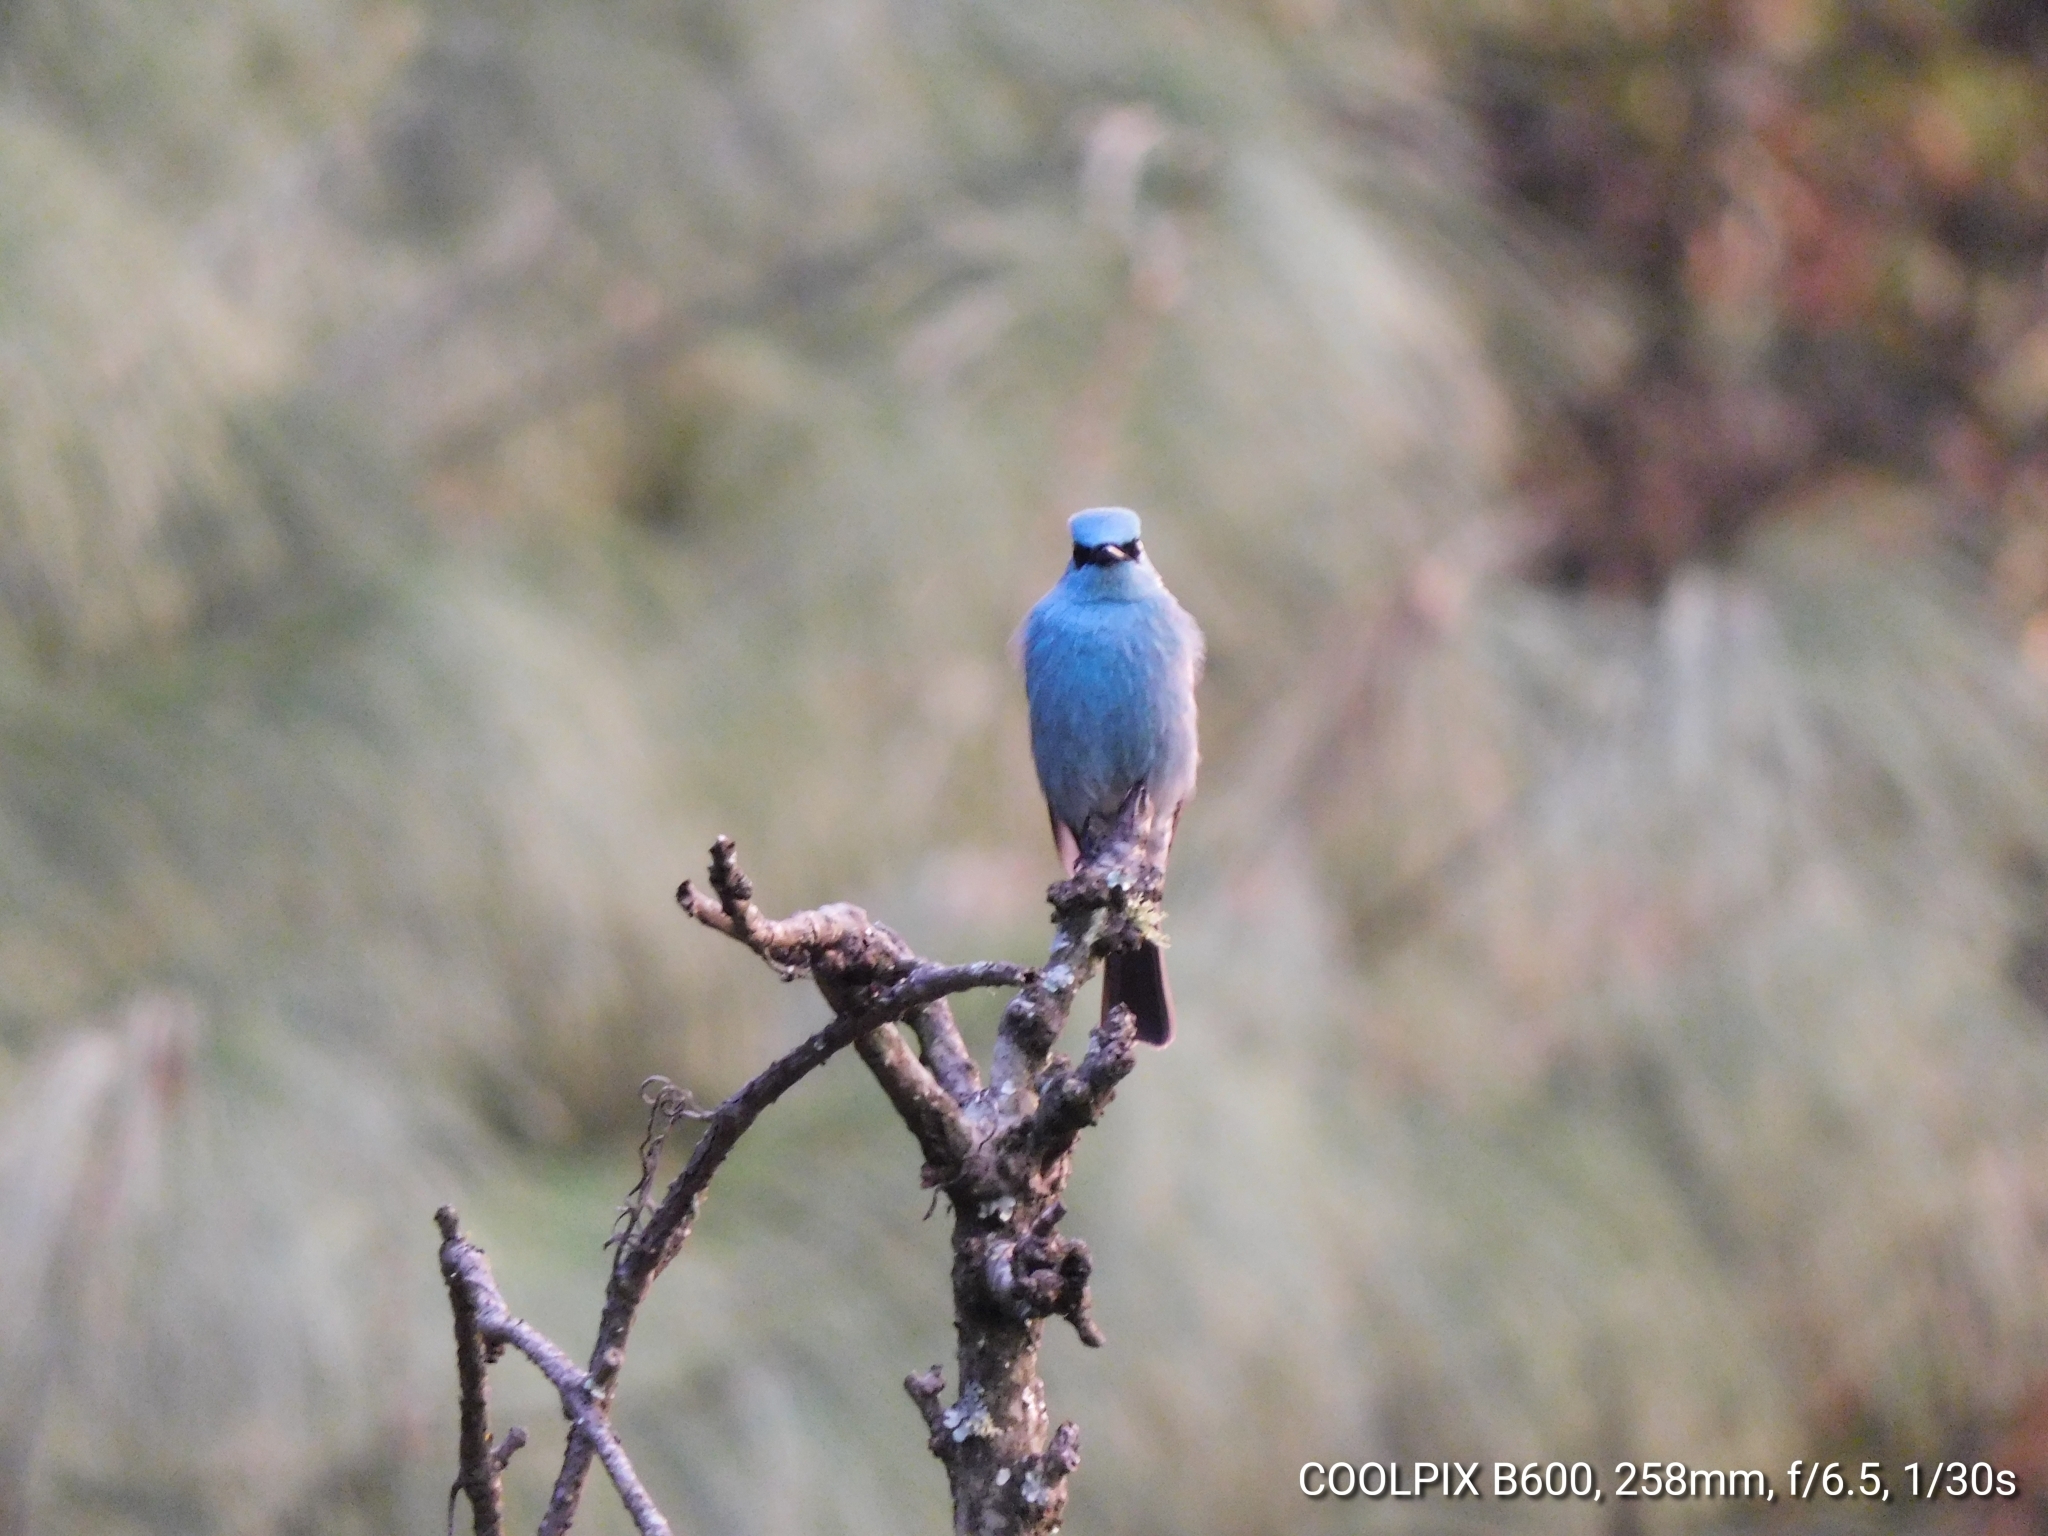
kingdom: Animalia
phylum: Chordata
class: Aves
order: Passeriformes
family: Muscicapidae
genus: Eumyias
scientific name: Eumyias thalassinus
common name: Verditer flycatcher
